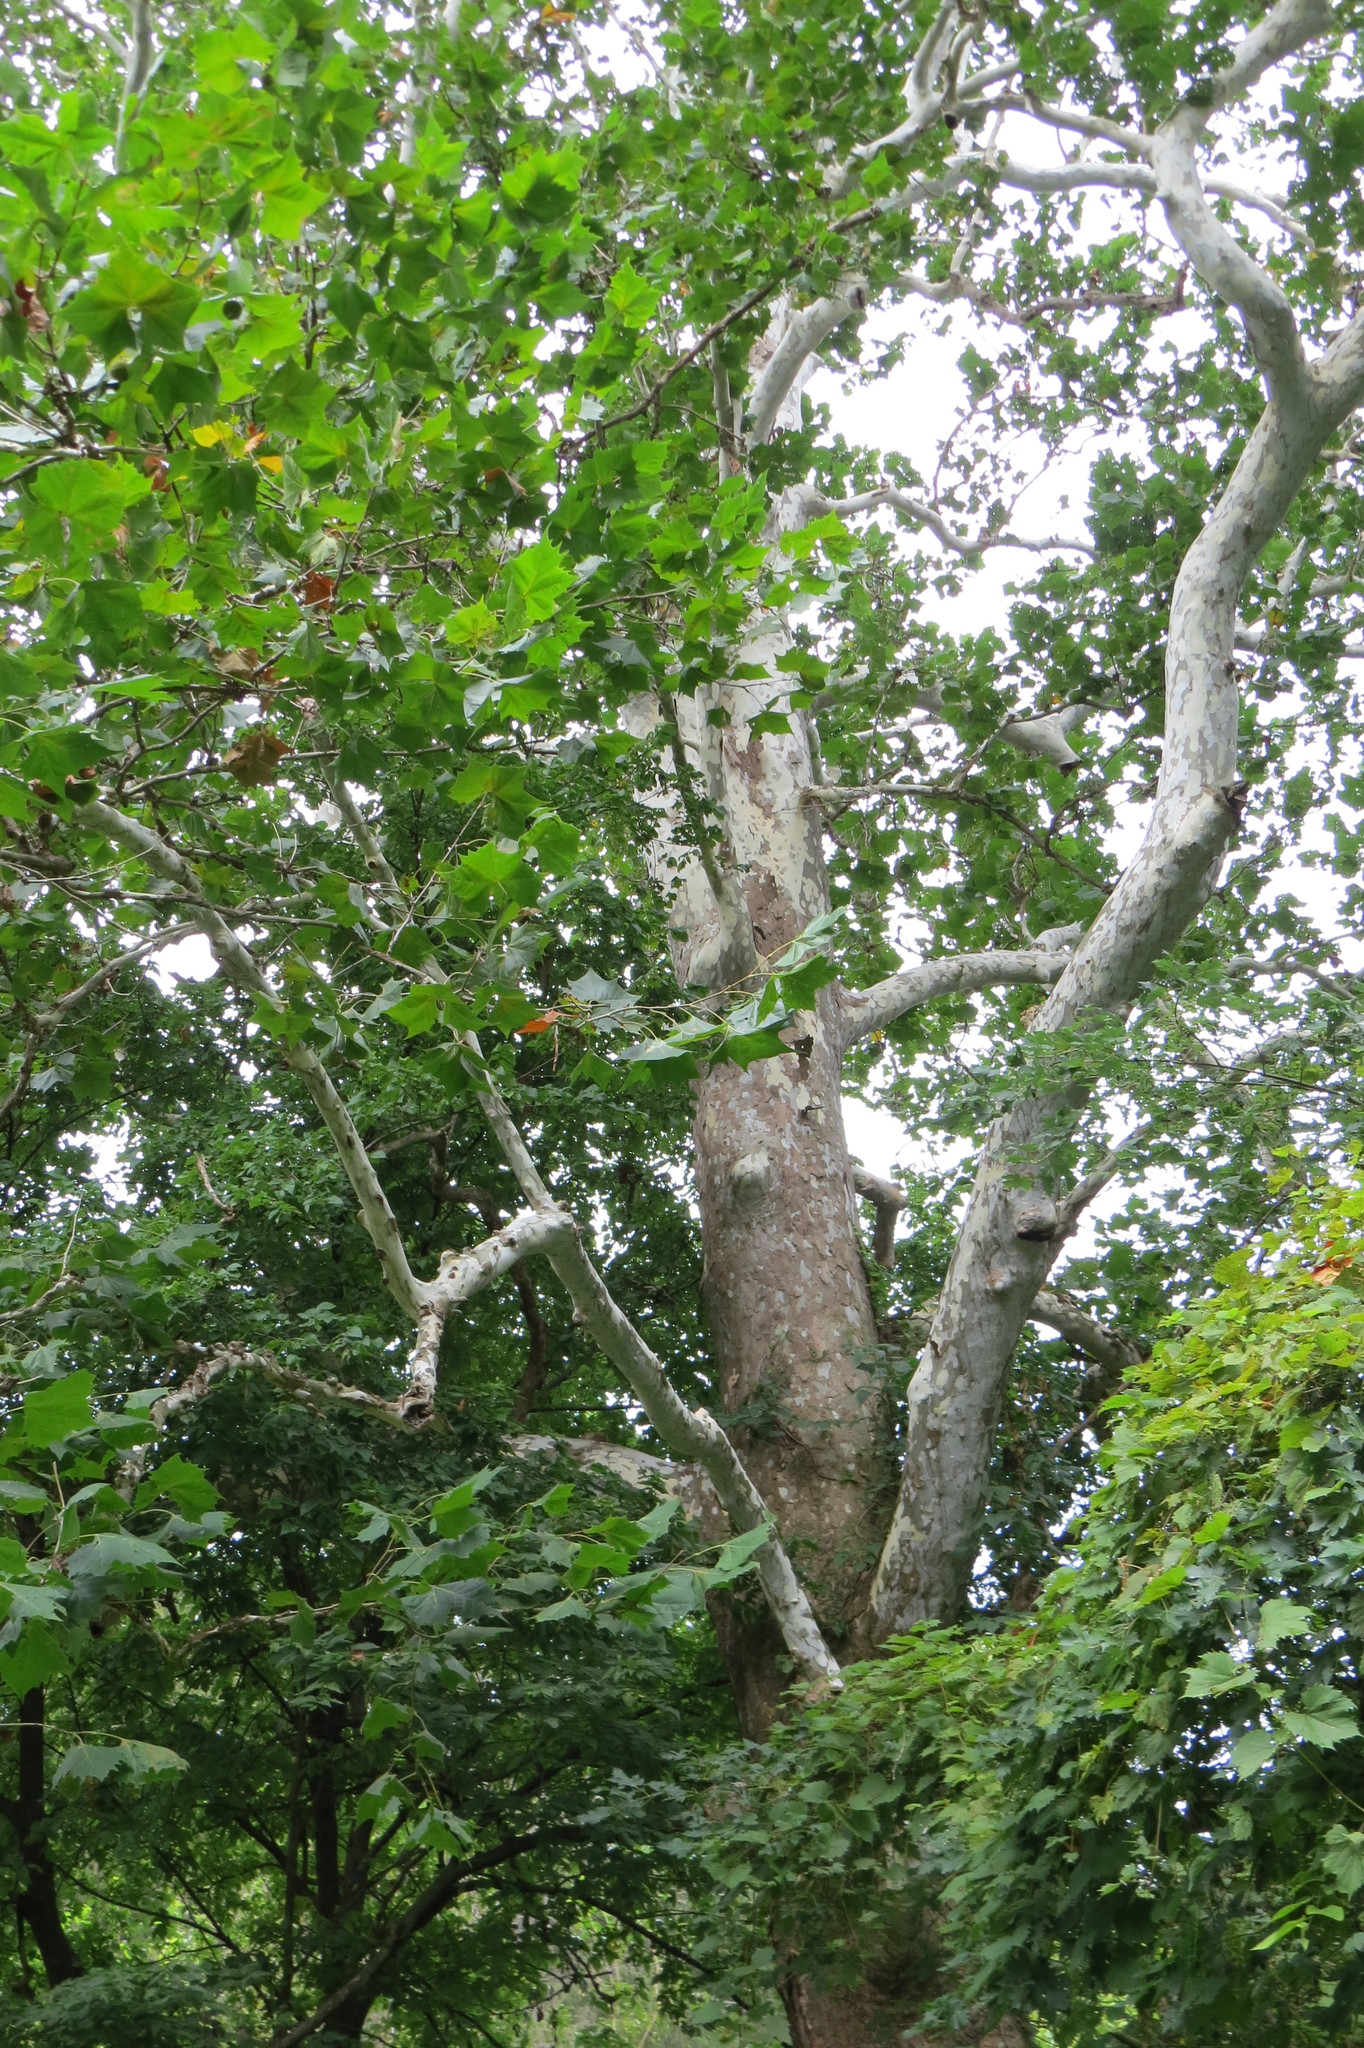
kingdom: Plantae
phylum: Tracheophyta
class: Magnoliopsida
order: Proteales
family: Platanaceae
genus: Platanus
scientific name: Platanus occidentalis
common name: American sycamore
